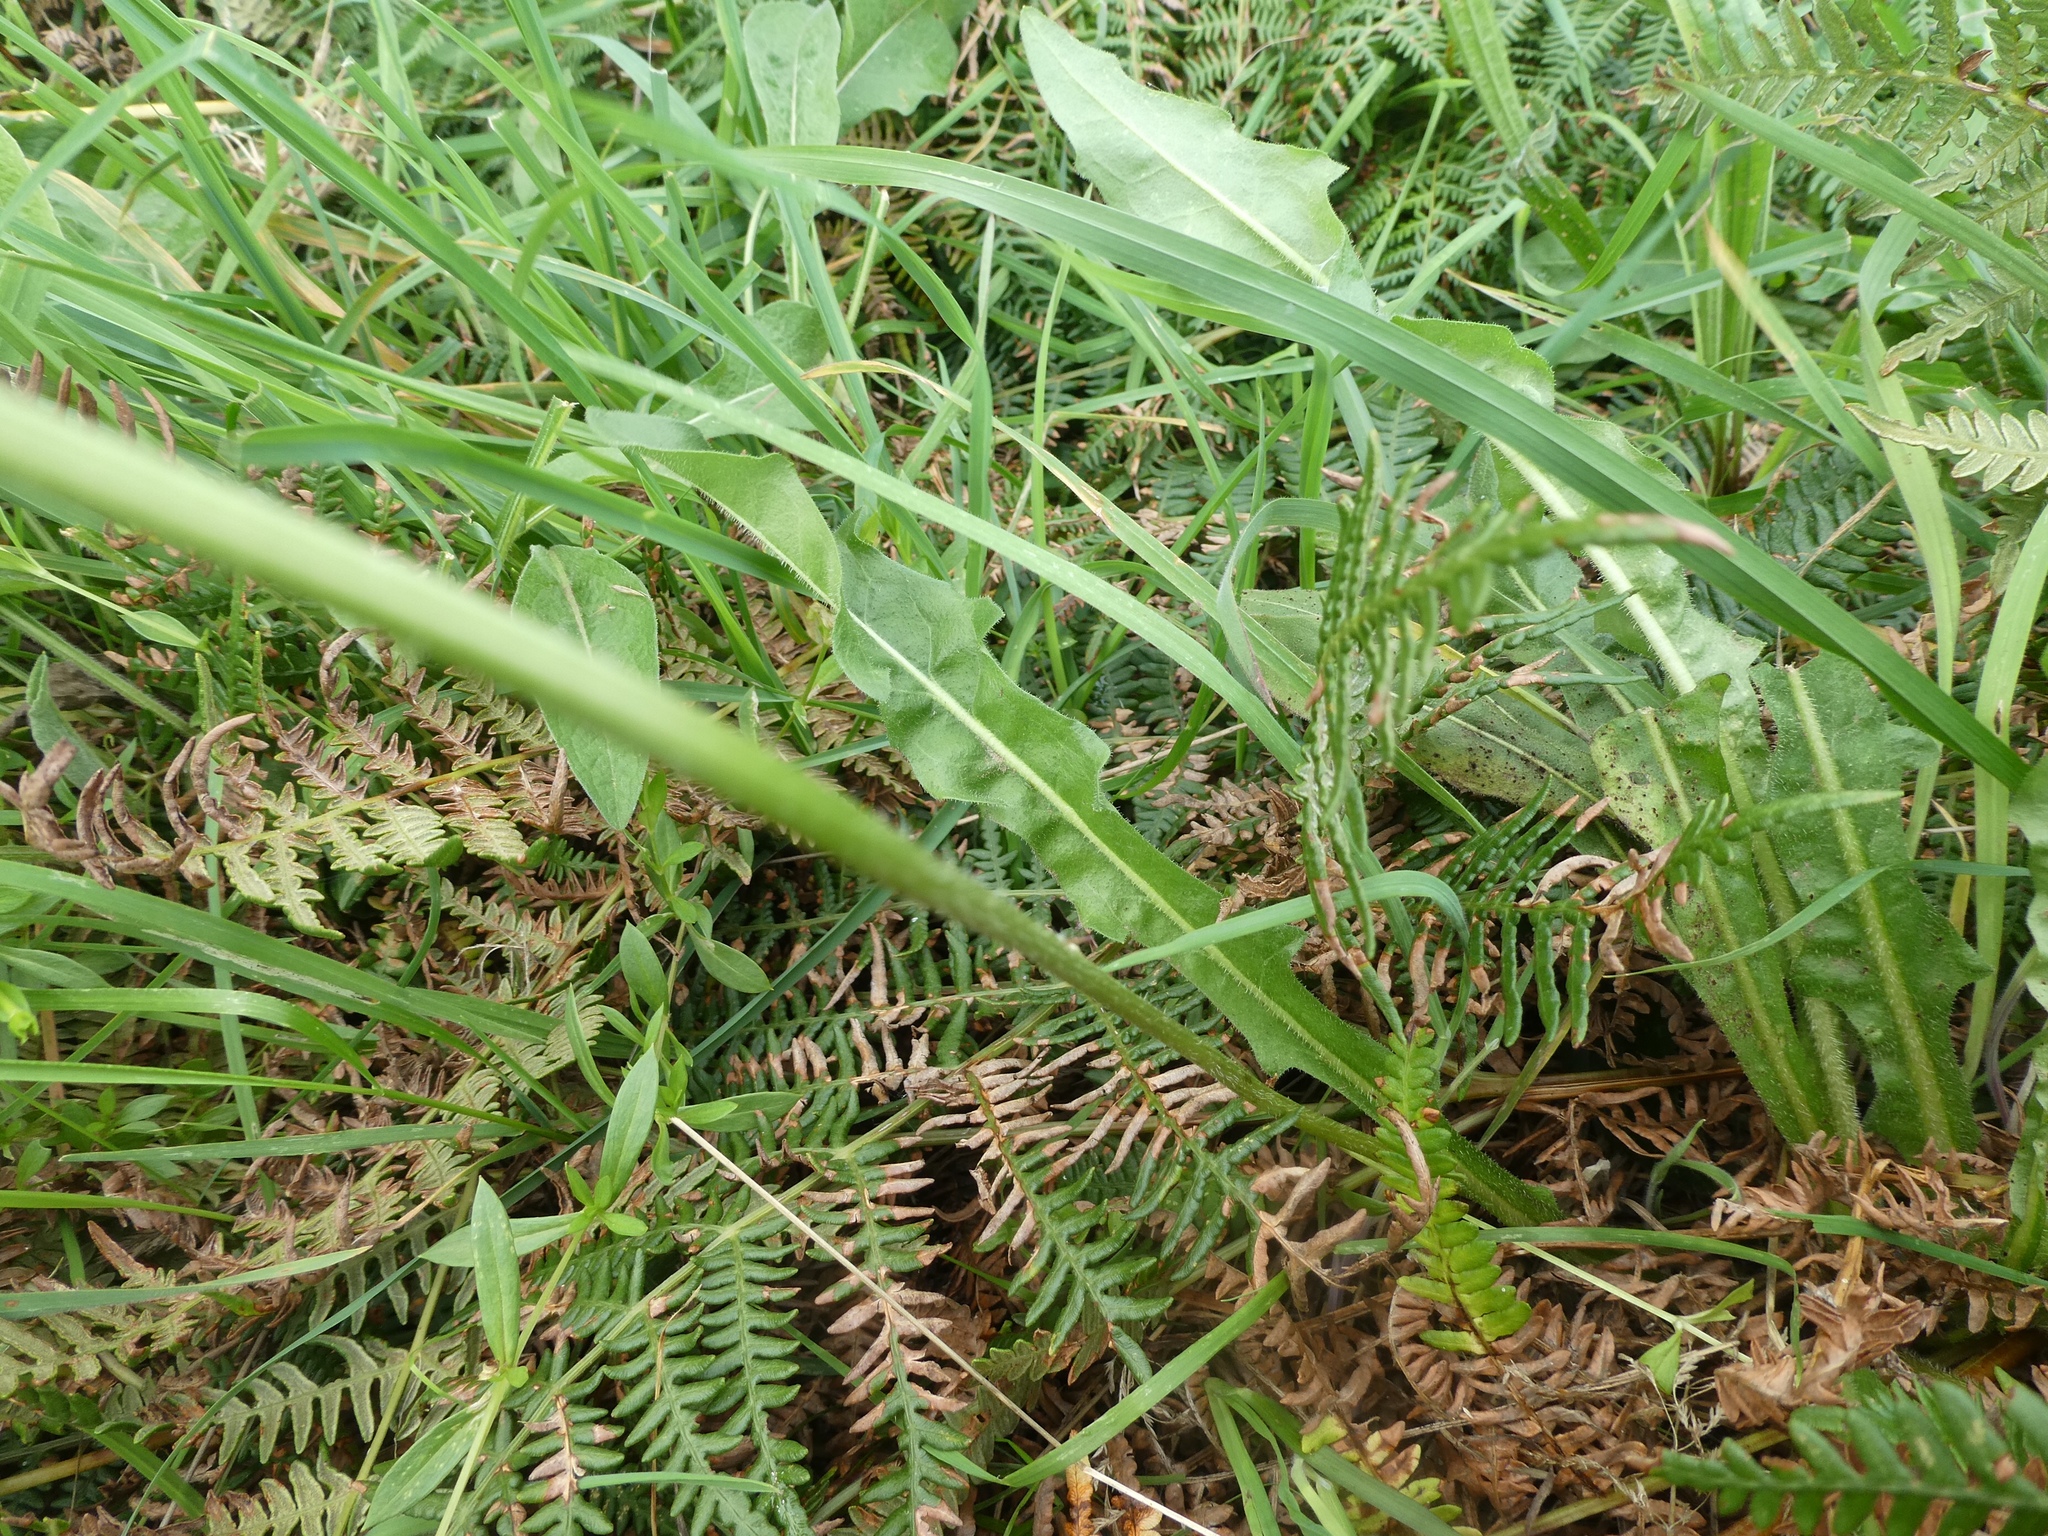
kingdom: Plantae
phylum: Tracheophyta
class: Magnoliopsida
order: Asterales
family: Asteraceae
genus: Leontodon
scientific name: Leontodon hispidus
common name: Rough hawkbit
